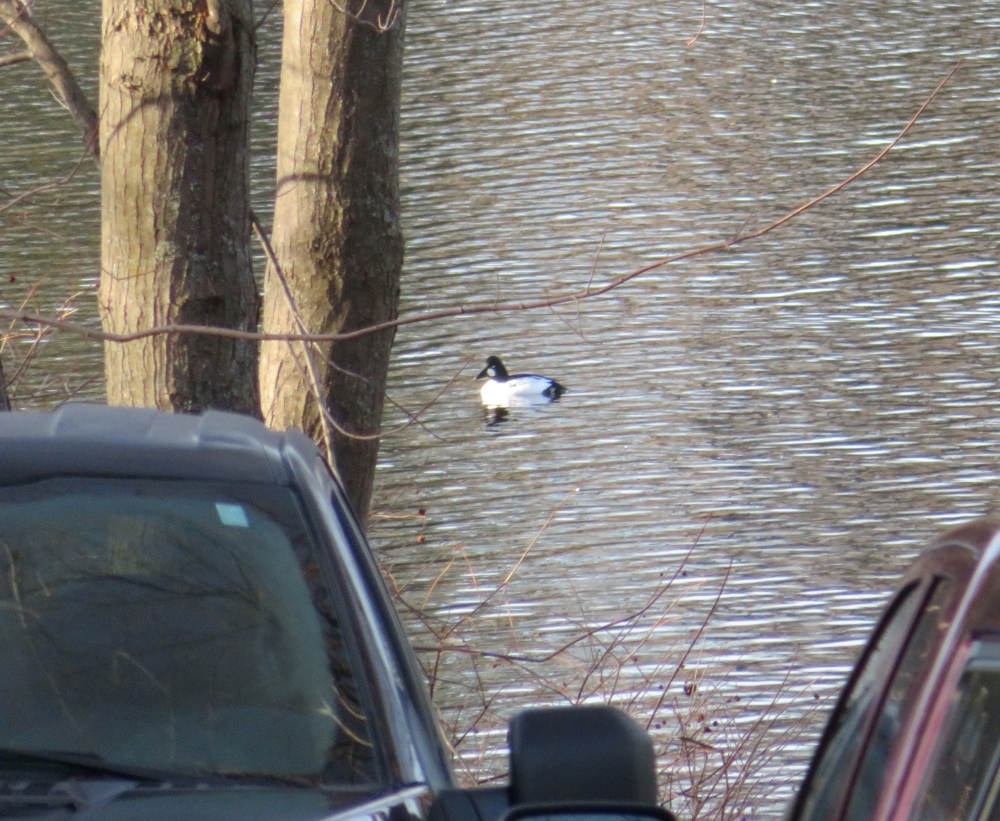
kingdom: Animalia
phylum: Chordata
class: Aves
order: Anseriformes
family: Anatidae
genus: Bucephala
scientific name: Bucephala clangula
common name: Common goldeneye
